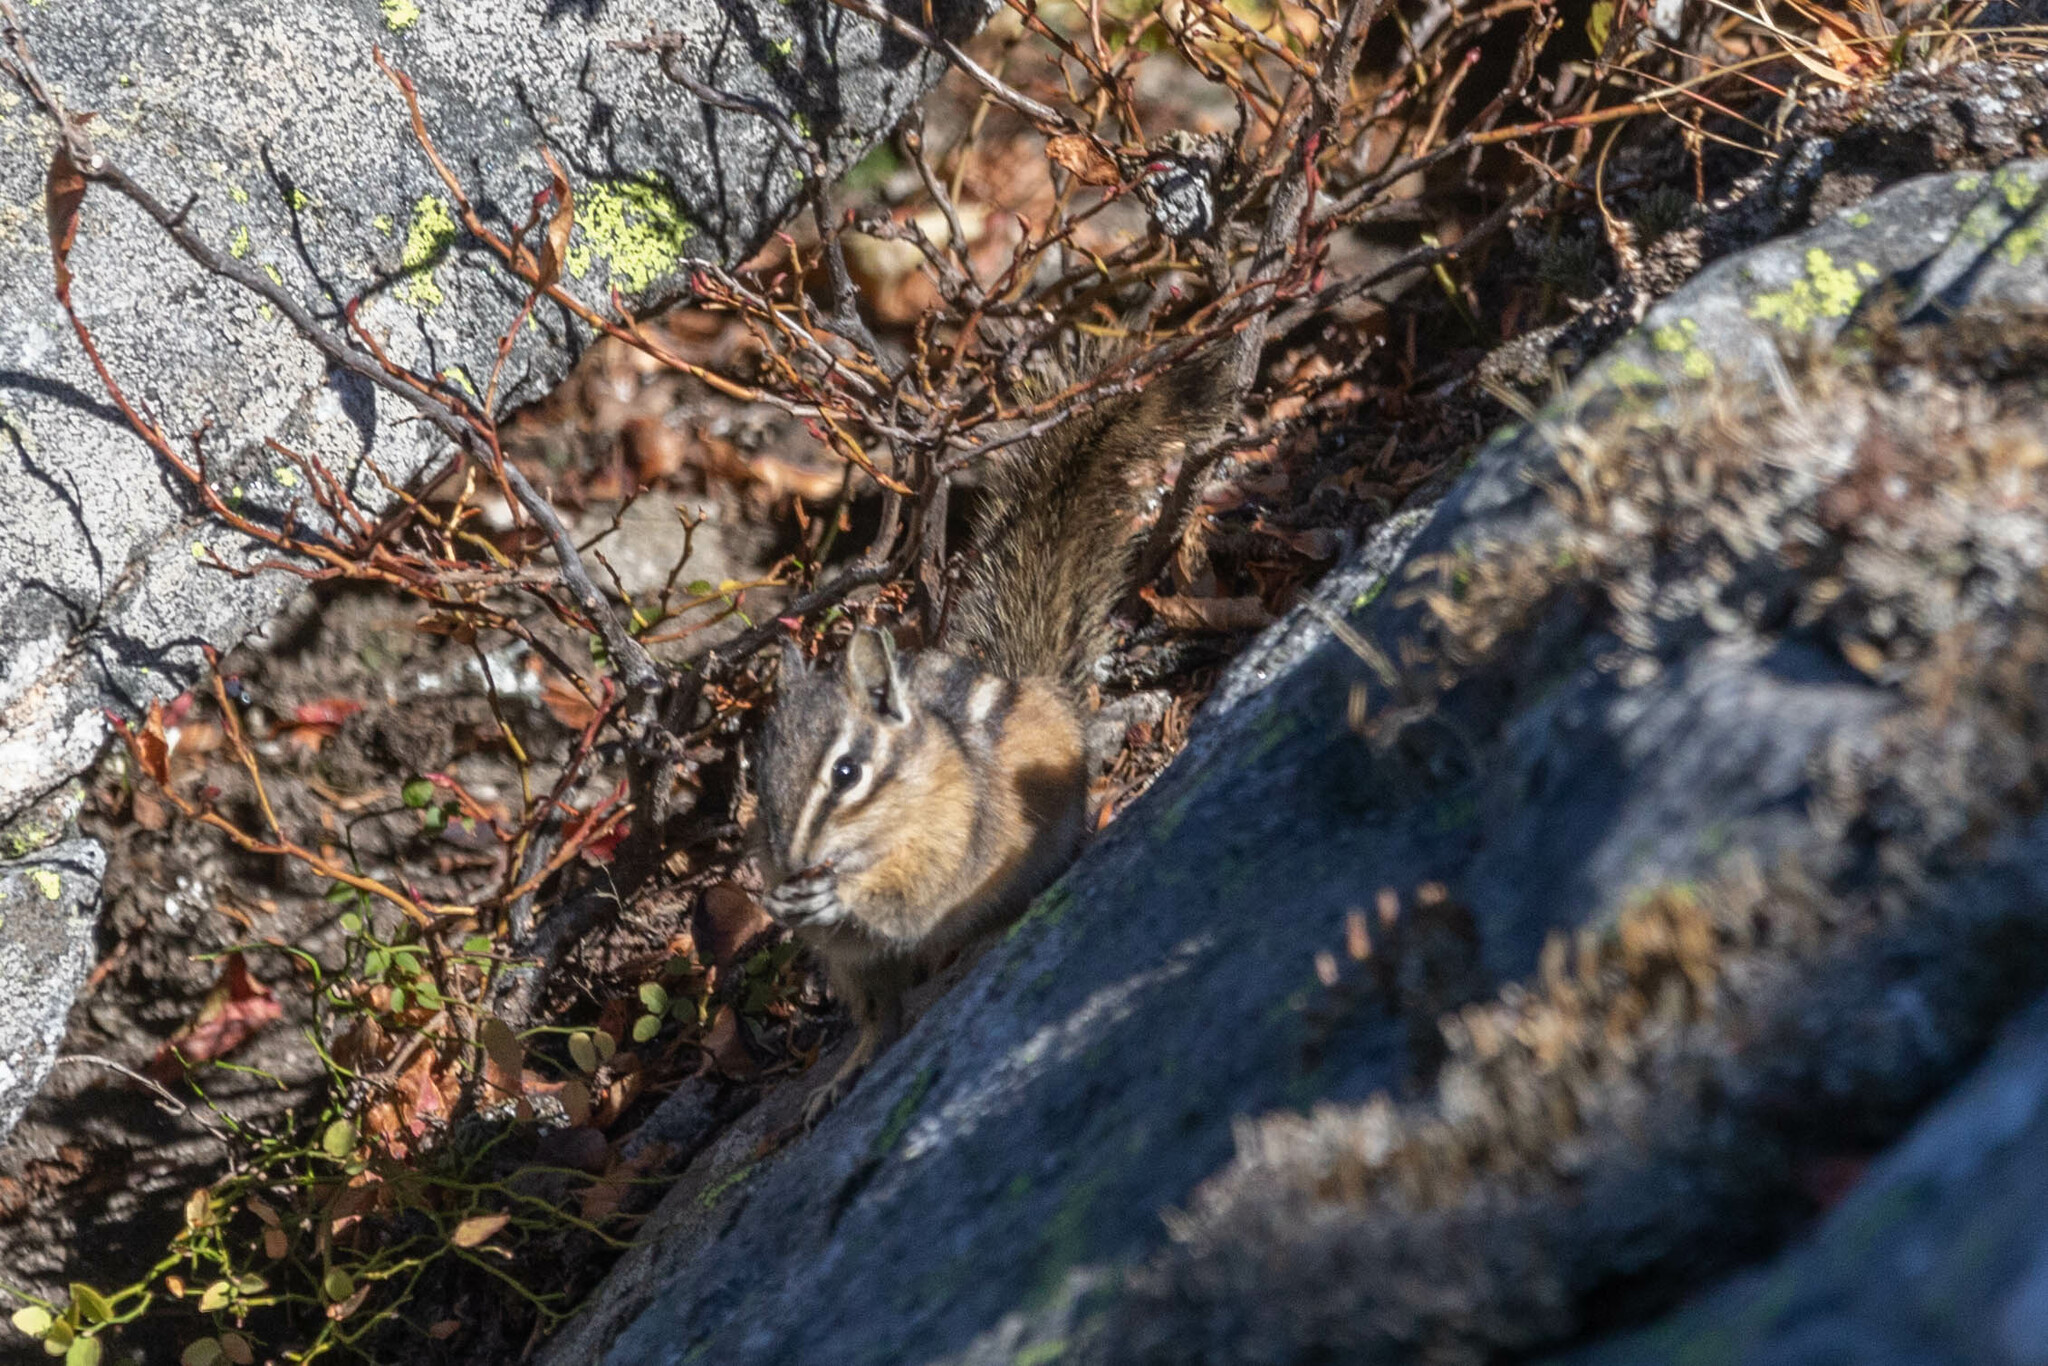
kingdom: Animalia
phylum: Chordata
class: Mammalia
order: Rodentia
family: Sciuridae
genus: Tamias
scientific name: Tamias amoenus
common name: Yellow-pine chipmunk
